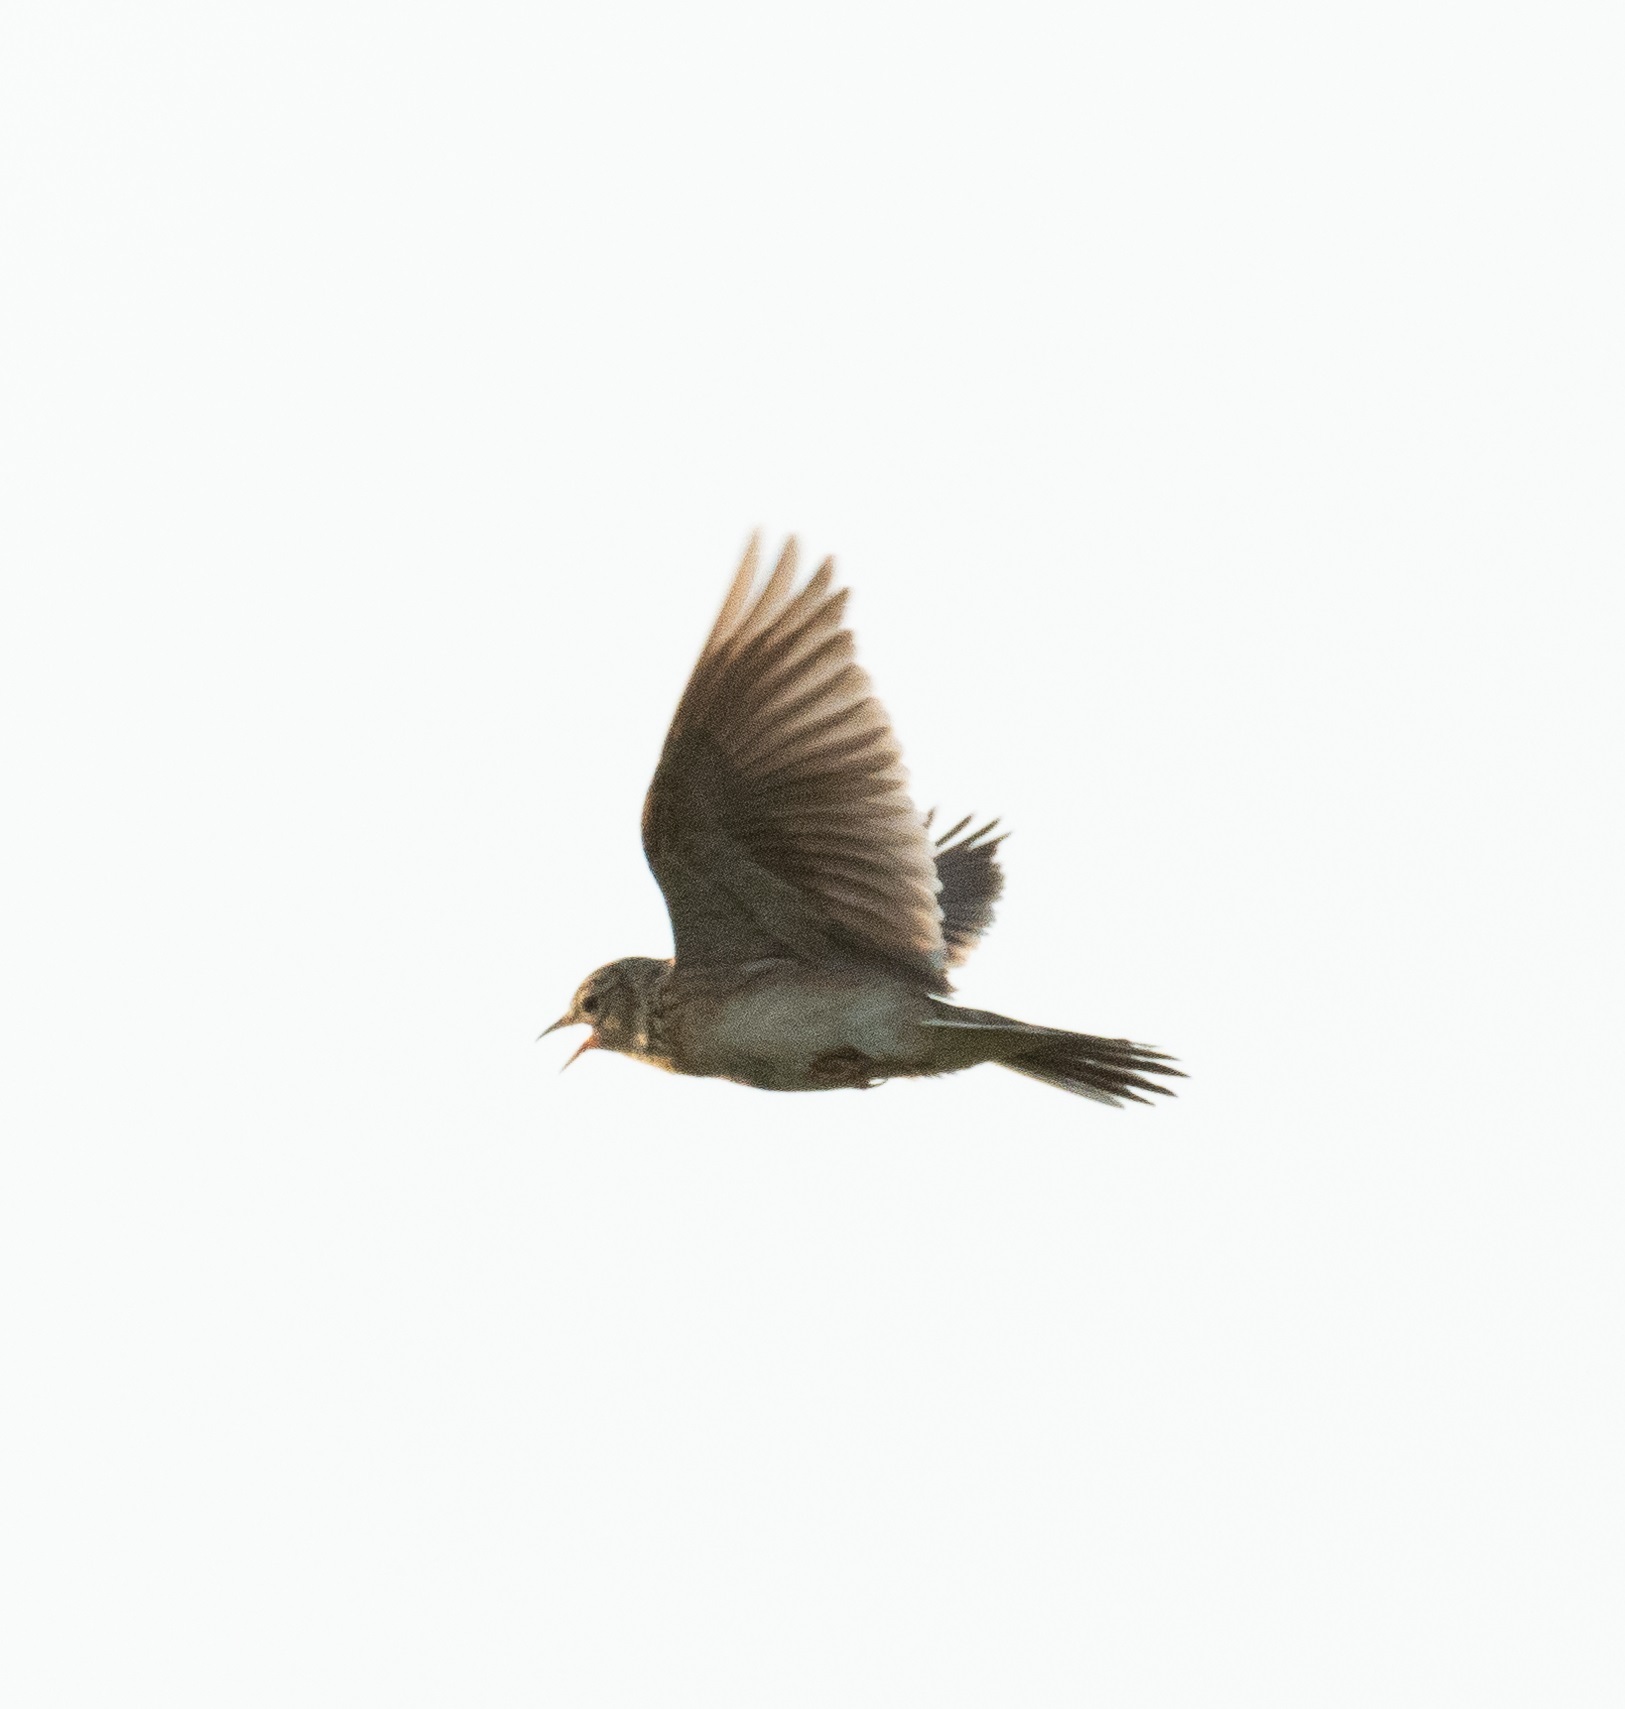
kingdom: Animalia
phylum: Chordata
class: Aves
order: Passeriformes
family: Alaudidae
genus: Alauda
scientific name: Alauda arvensis
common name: Eurasian skylark
